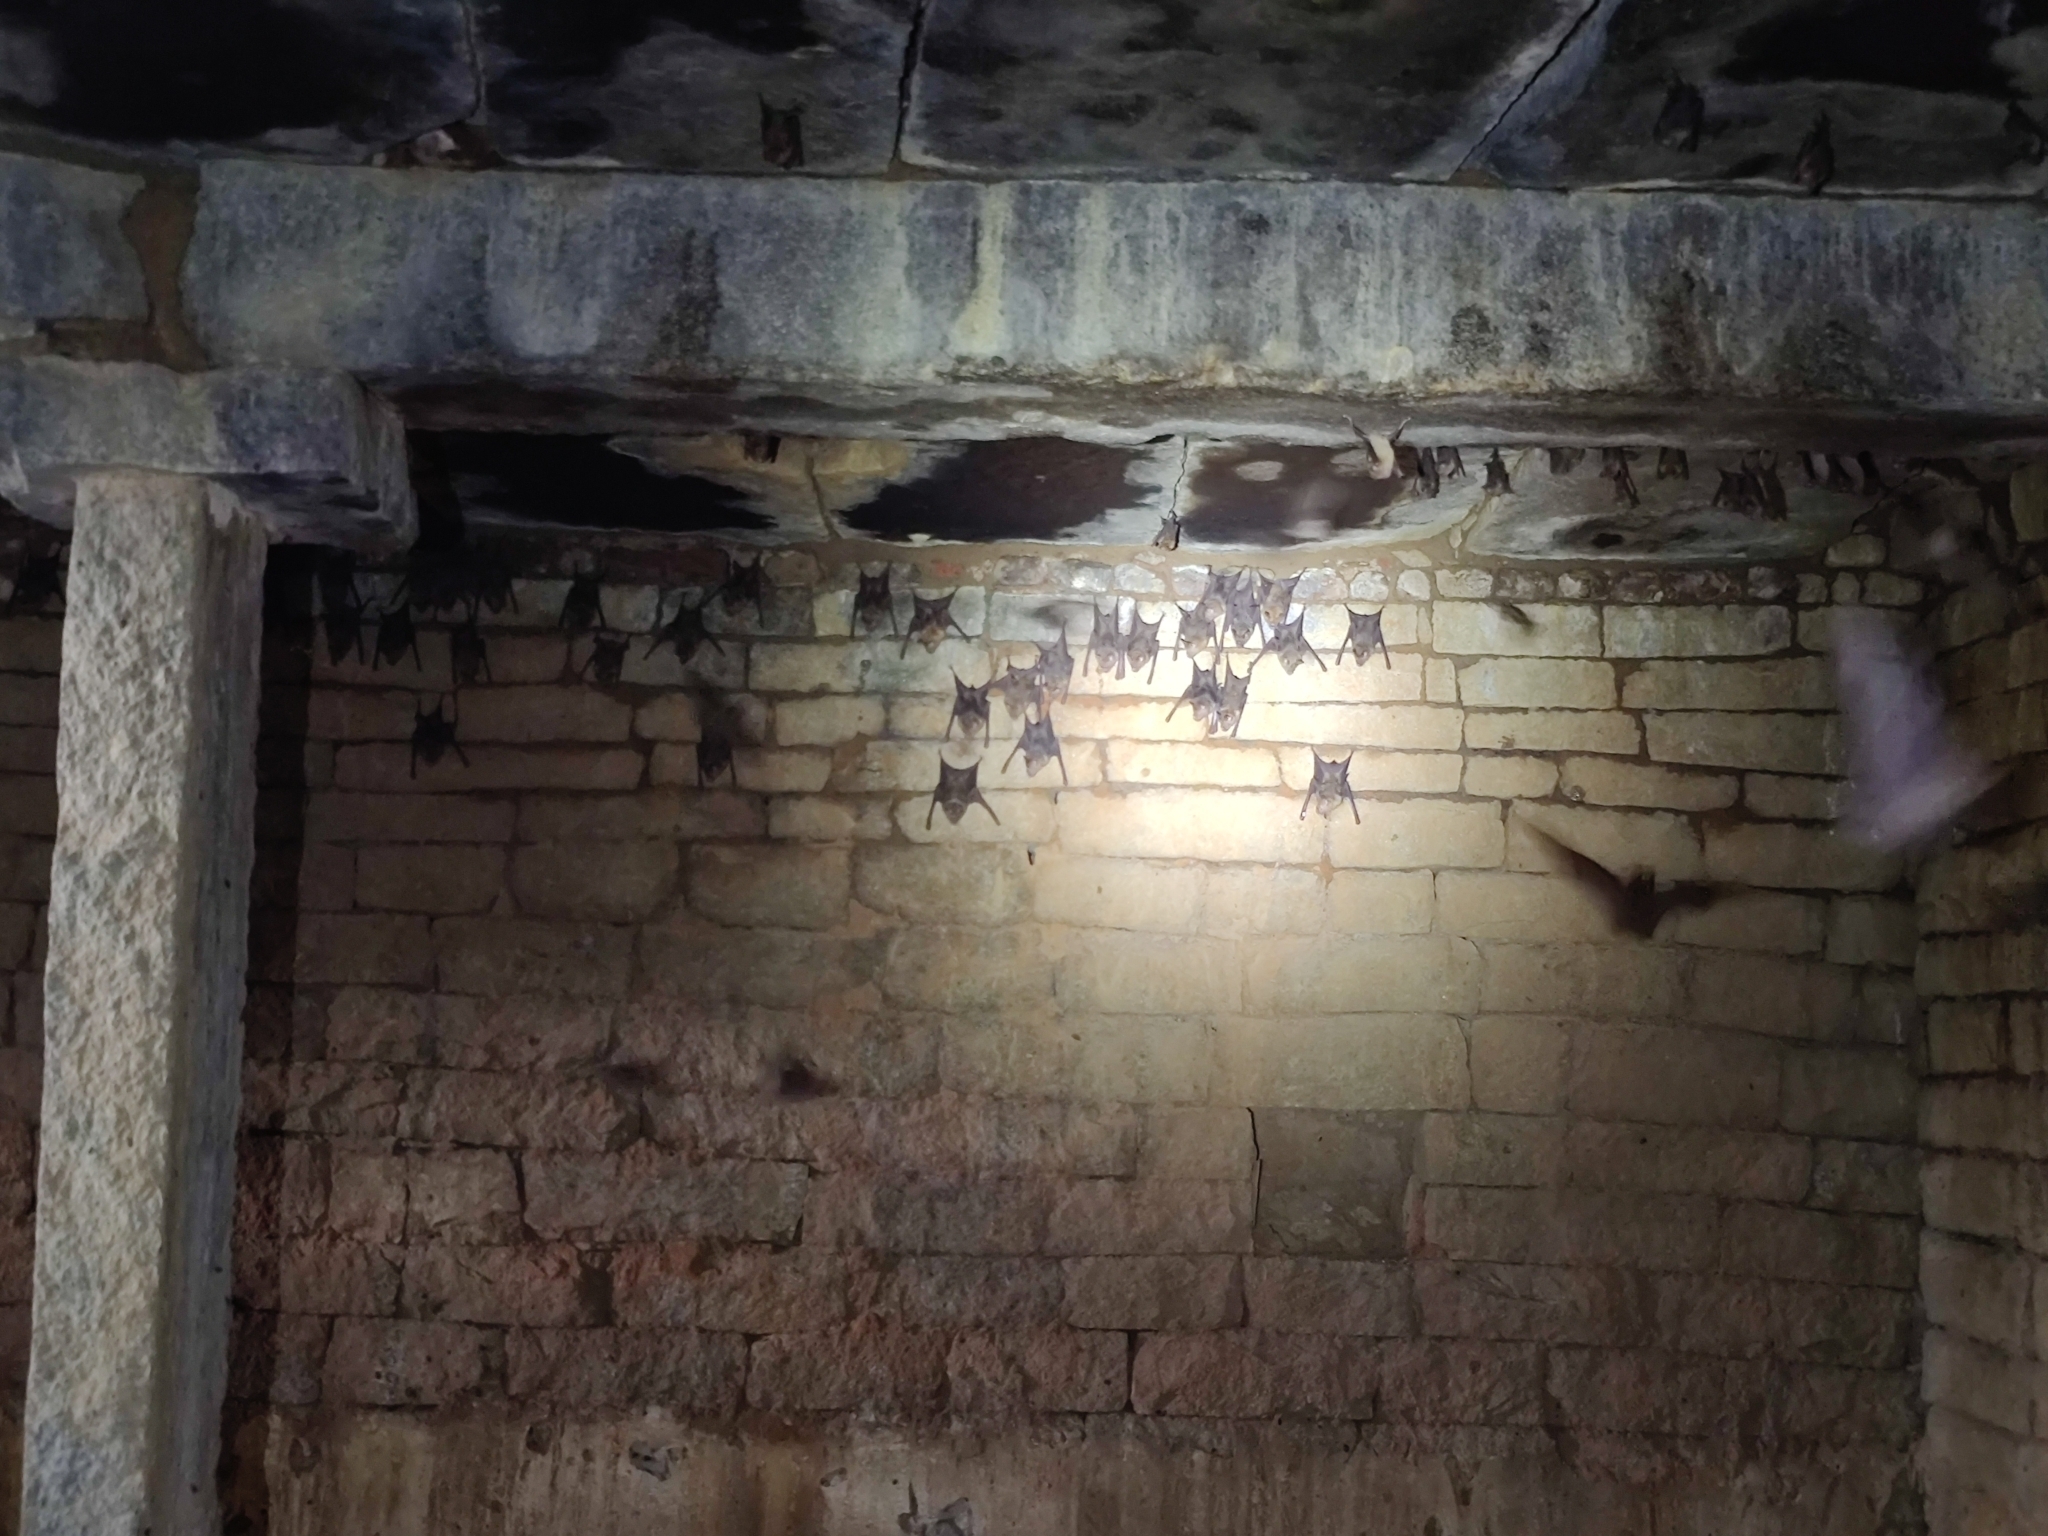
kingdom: Animalia
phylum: Chordata
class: Mammalia
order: Chiroptera
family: Hipposideridae
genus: Hipposideros
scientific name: Hipposideros speoris
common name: Schneider's roundleaf bat
